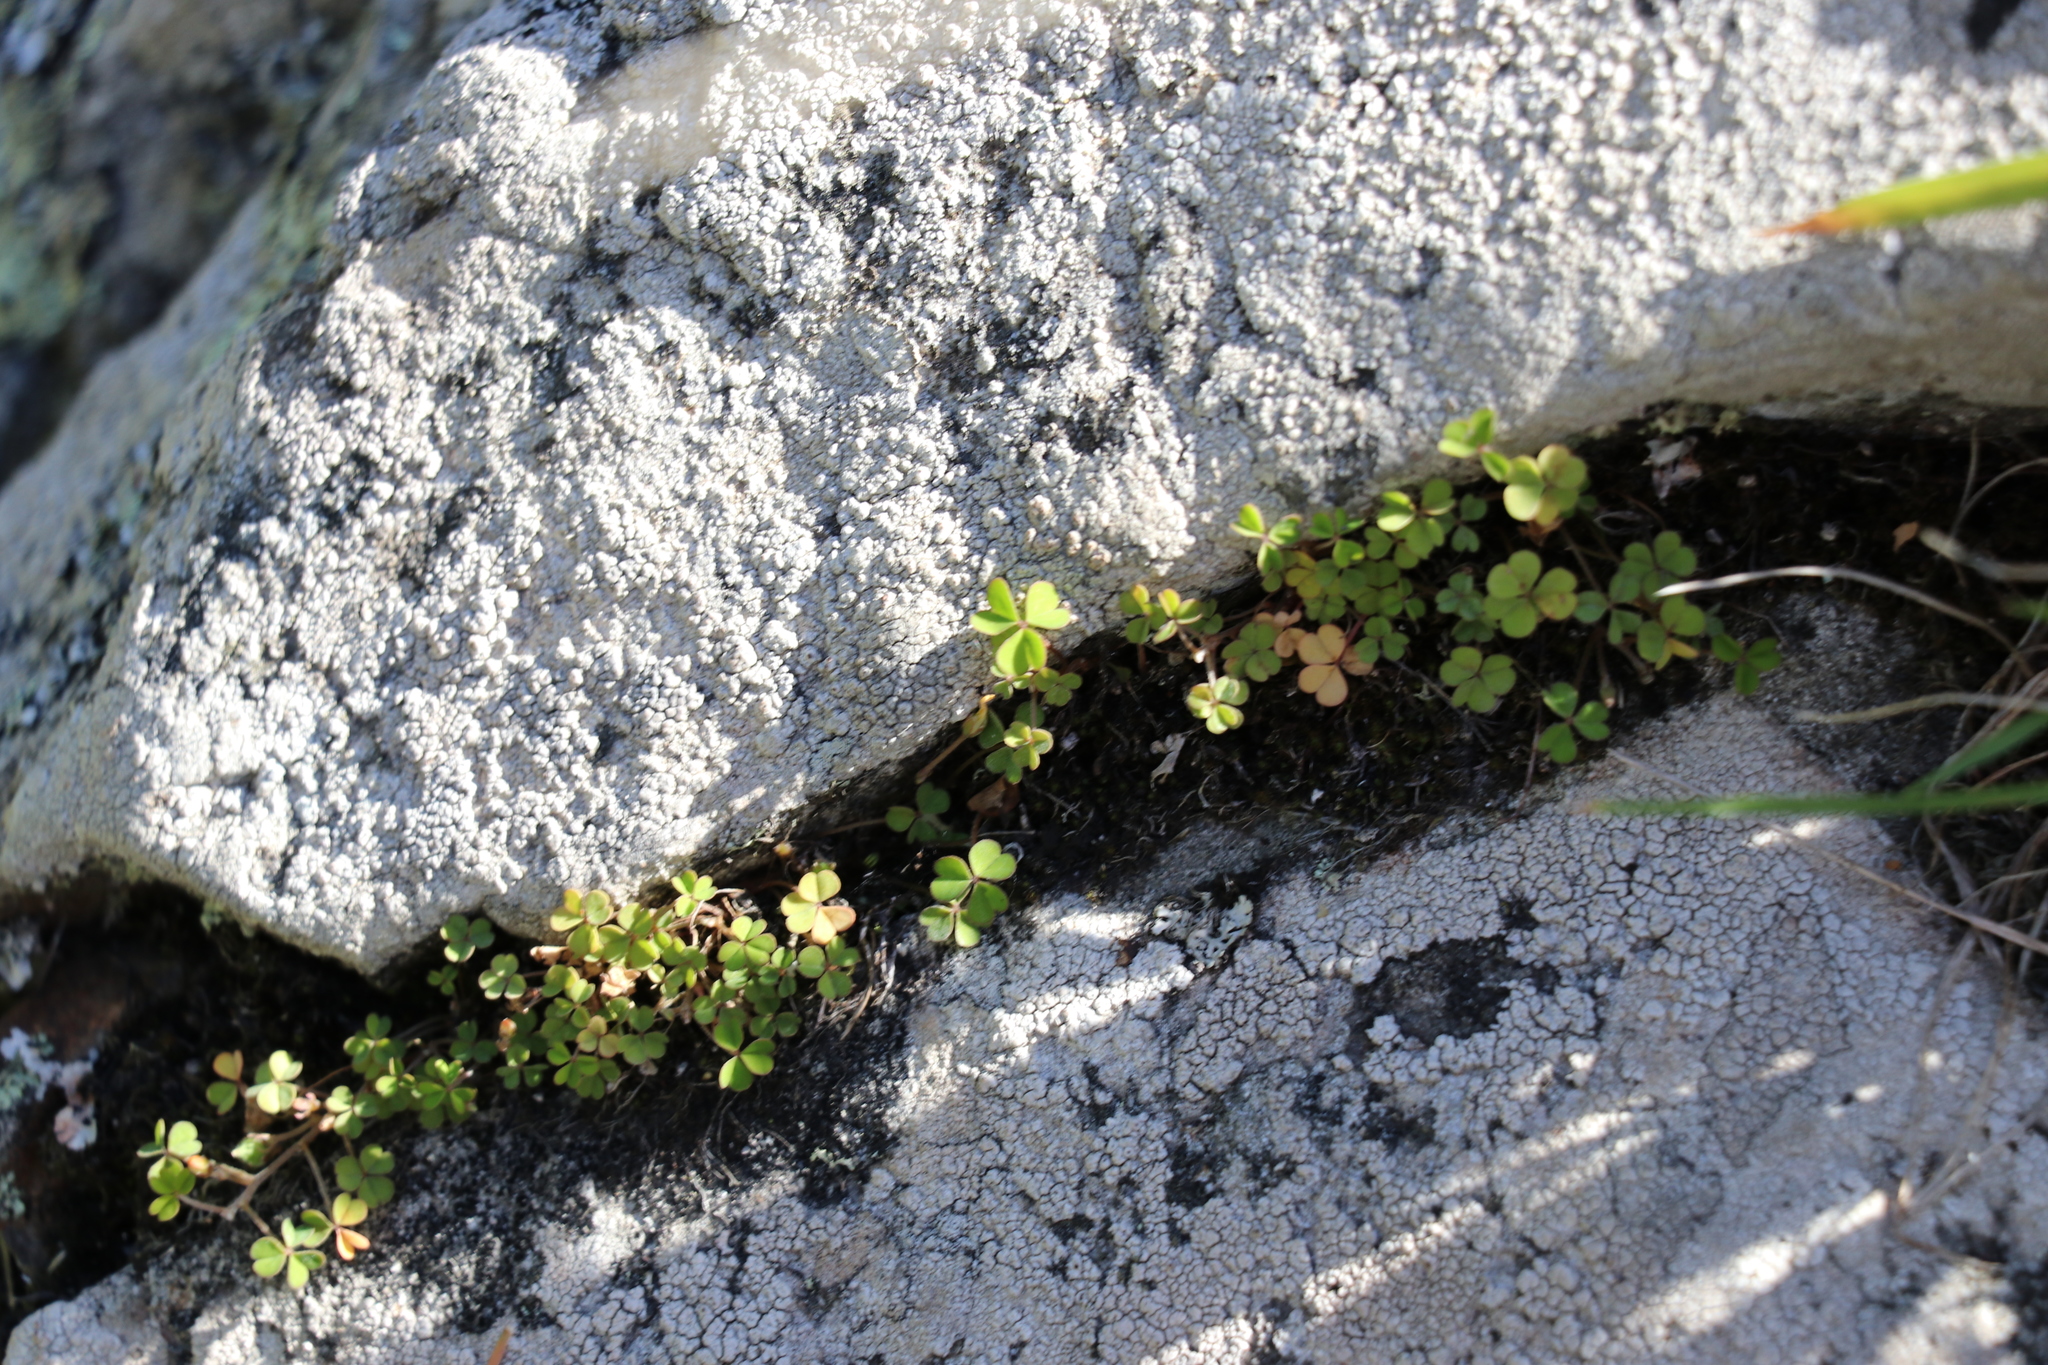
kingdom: Plantae
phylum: Tracheophyta
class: Magnoliopsida
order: Oxalidales
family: Oxalidaceae
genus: Oxalis
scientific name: Oxalis exilis
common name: Least yellow-sorrel
